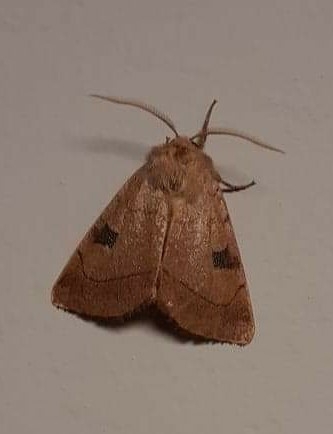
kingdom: Animalia
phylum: Arthropoda
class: Insecta
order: Lepidoptera
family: Noctuidae
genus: Choephora
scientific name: Choephora fungorum
